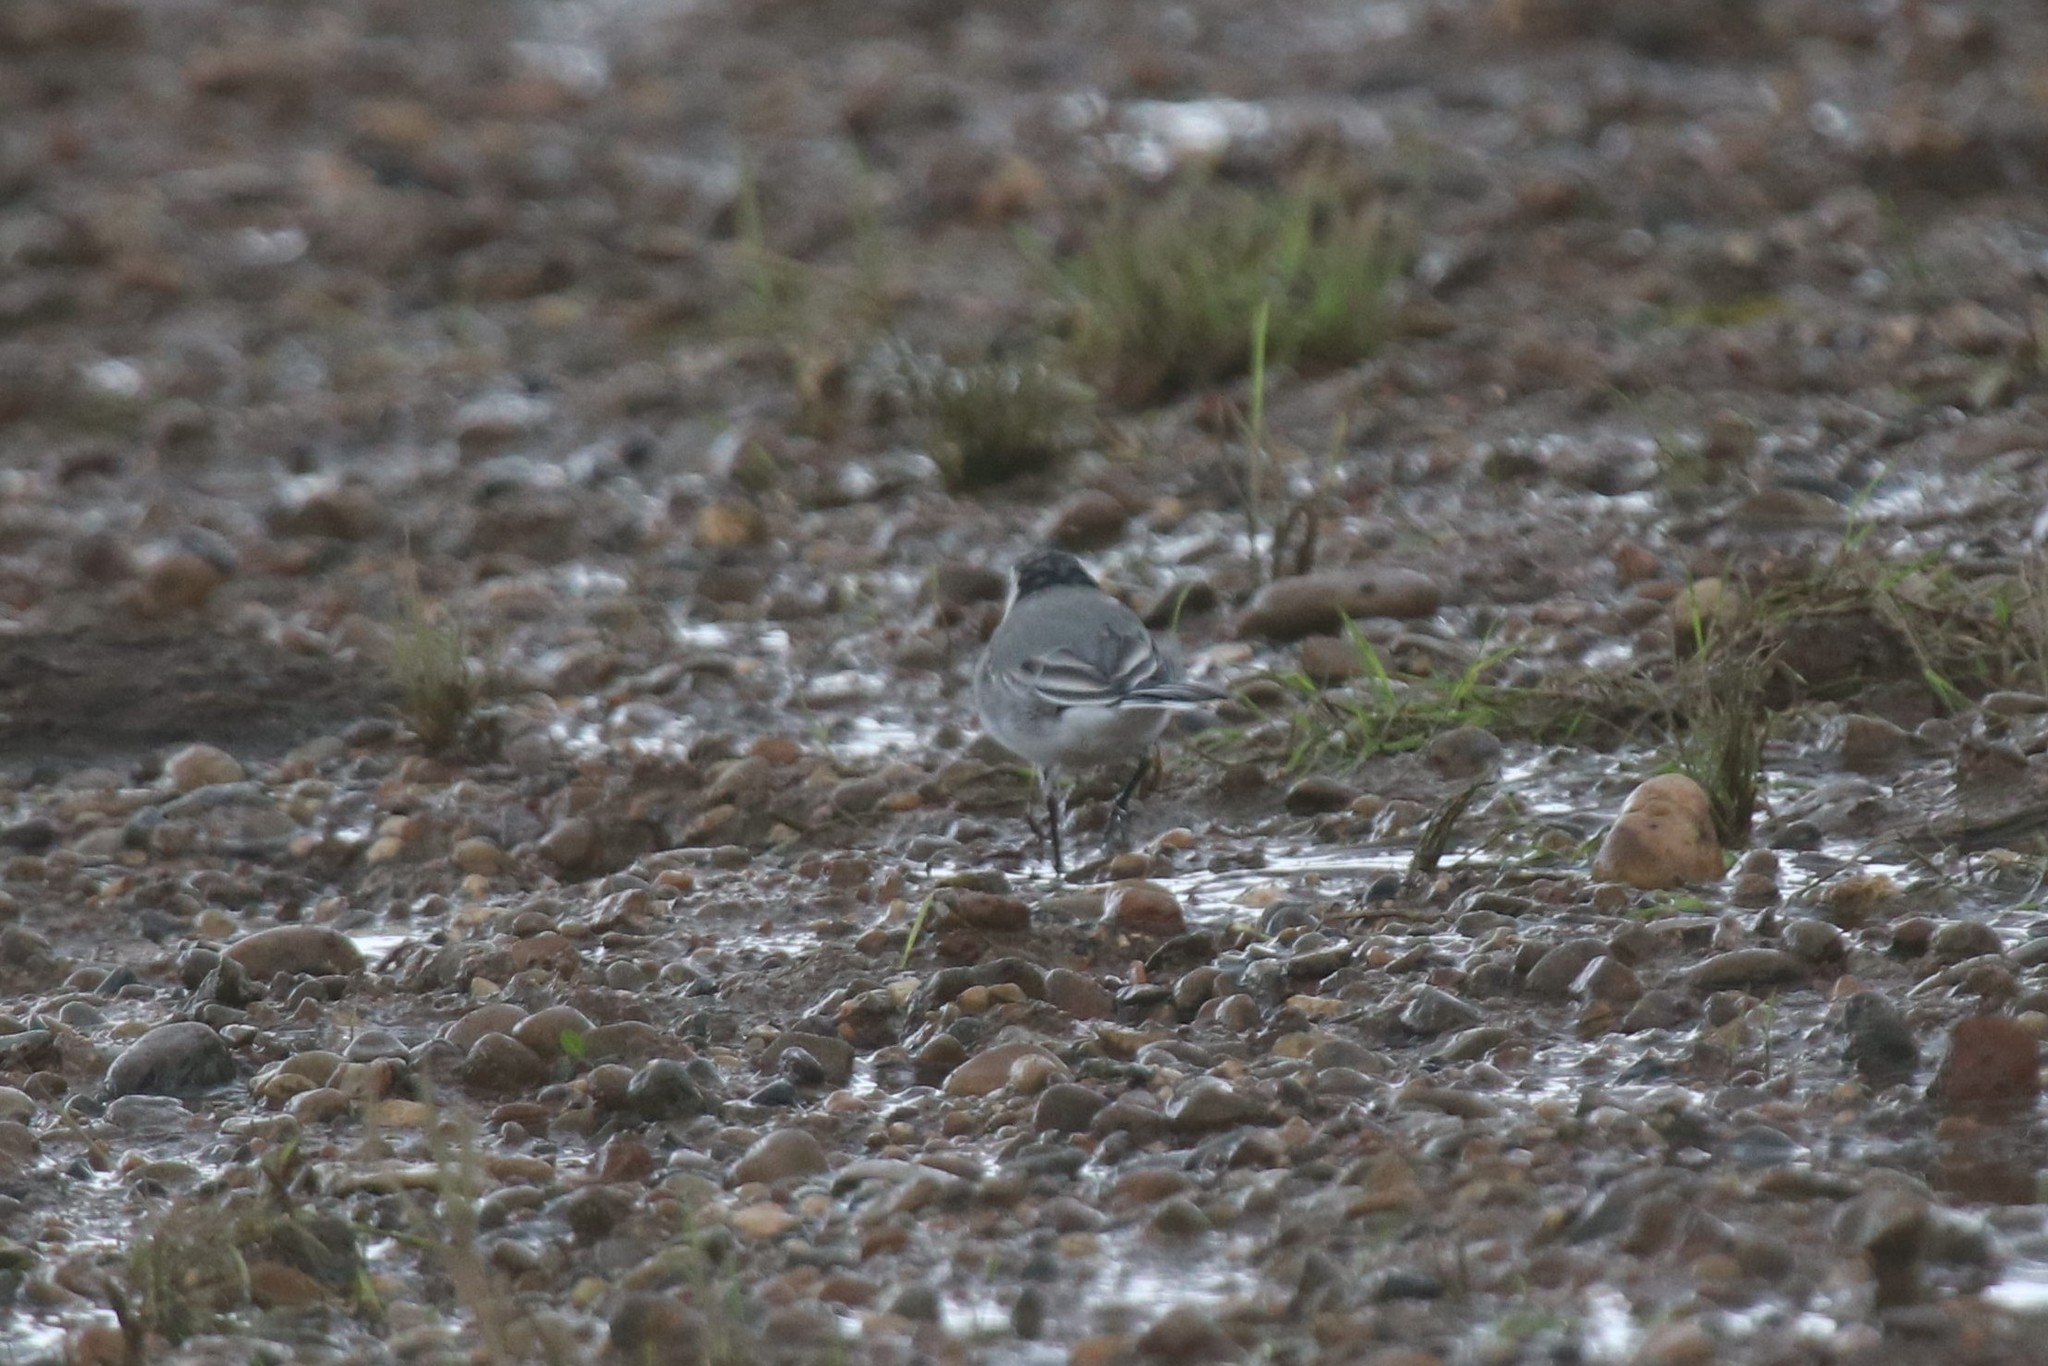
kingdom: Animalia
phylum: Chordata
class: Aves
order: Passeriformes
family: Motacillidae
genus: Motacilla
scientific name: Motacilla alba
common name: White wagtail
